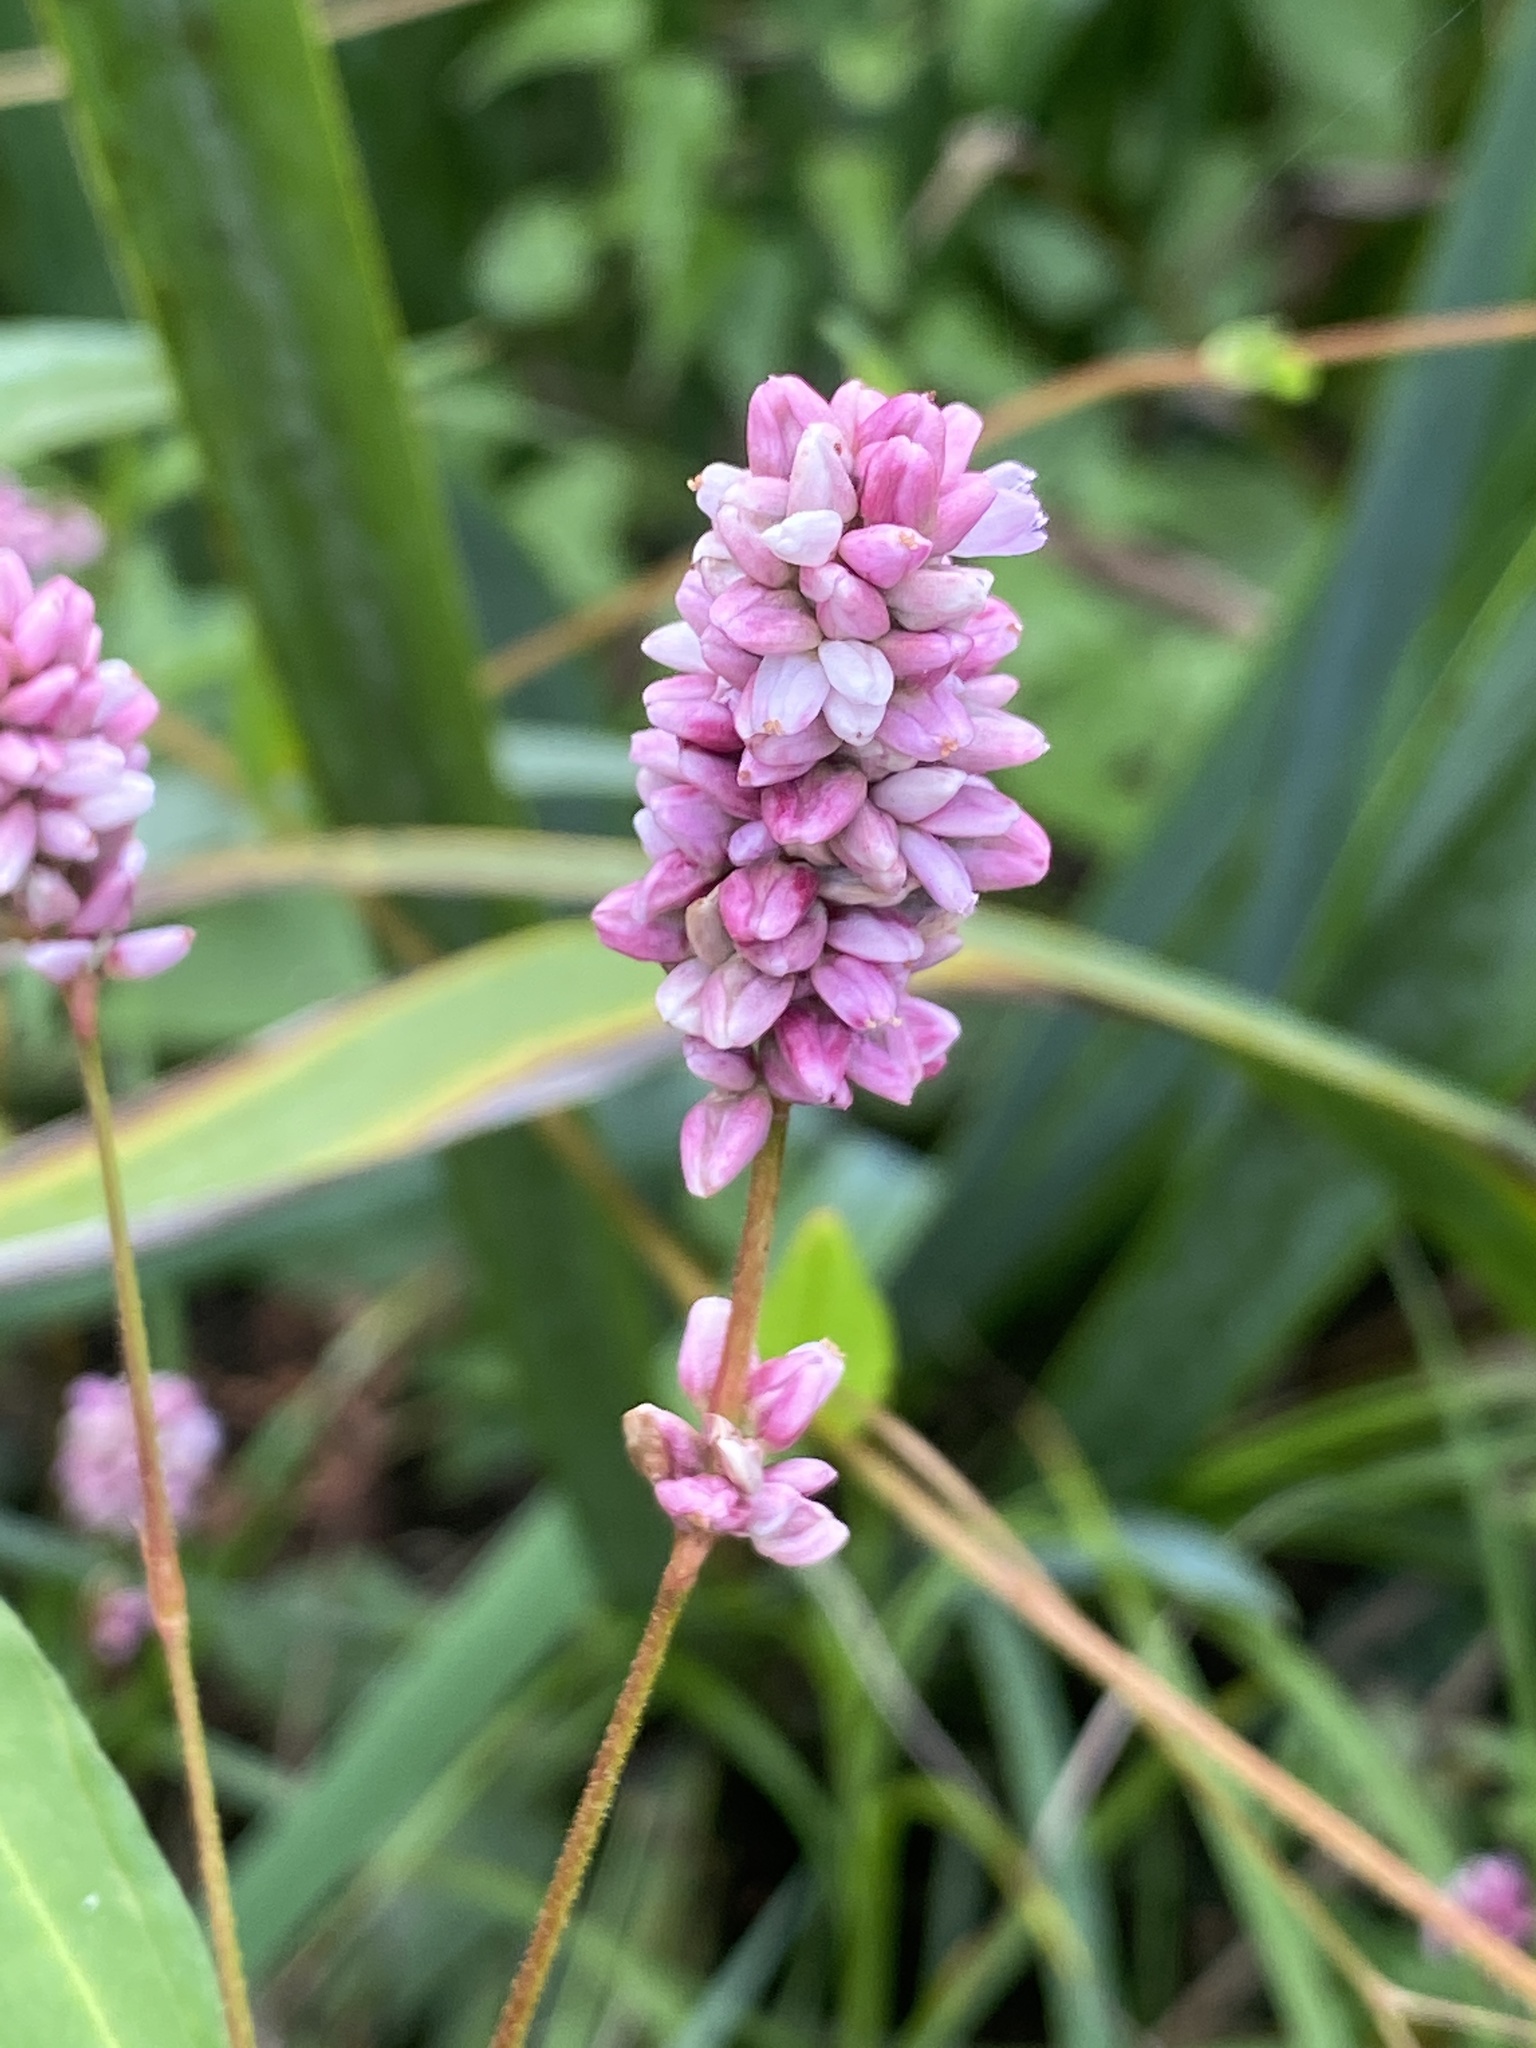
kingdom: Plantae
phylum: Tracheophyta
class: Magnoliopsida
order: Caryophyllales
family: Polygonaceae
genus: Persicaria
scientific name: Persicaria pensylvanica
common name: Pinkweed
